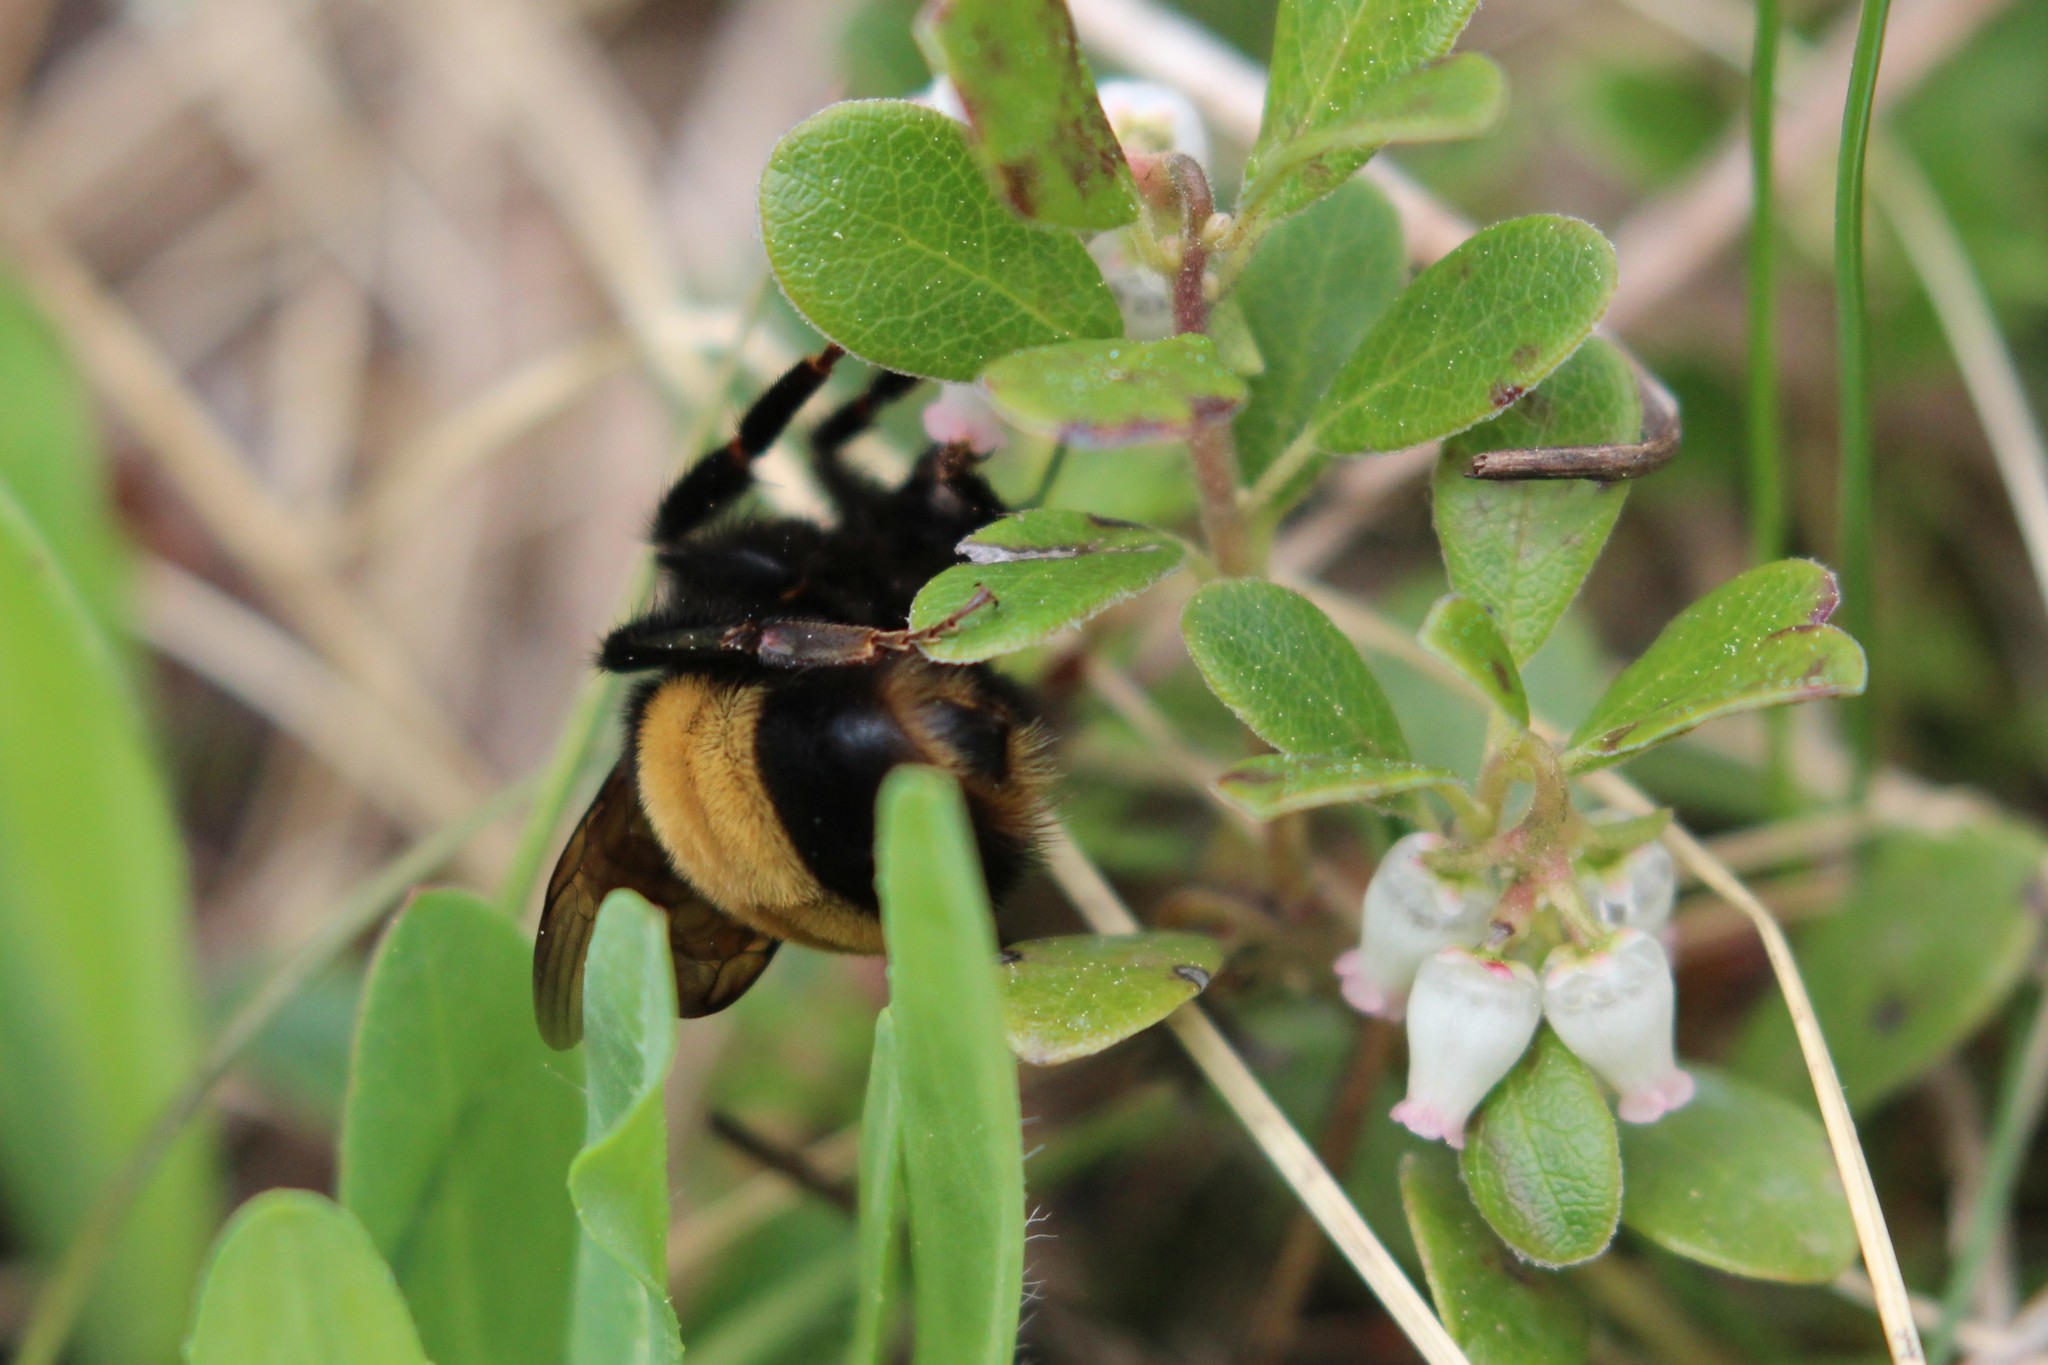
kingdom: Plantae
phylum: Tracheophyta
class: Magnoliopsida
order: Ericales
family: Ericaceae
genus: Arctostaphylos
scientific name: Arctostaphylos uva-ursi
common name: Bearberry
